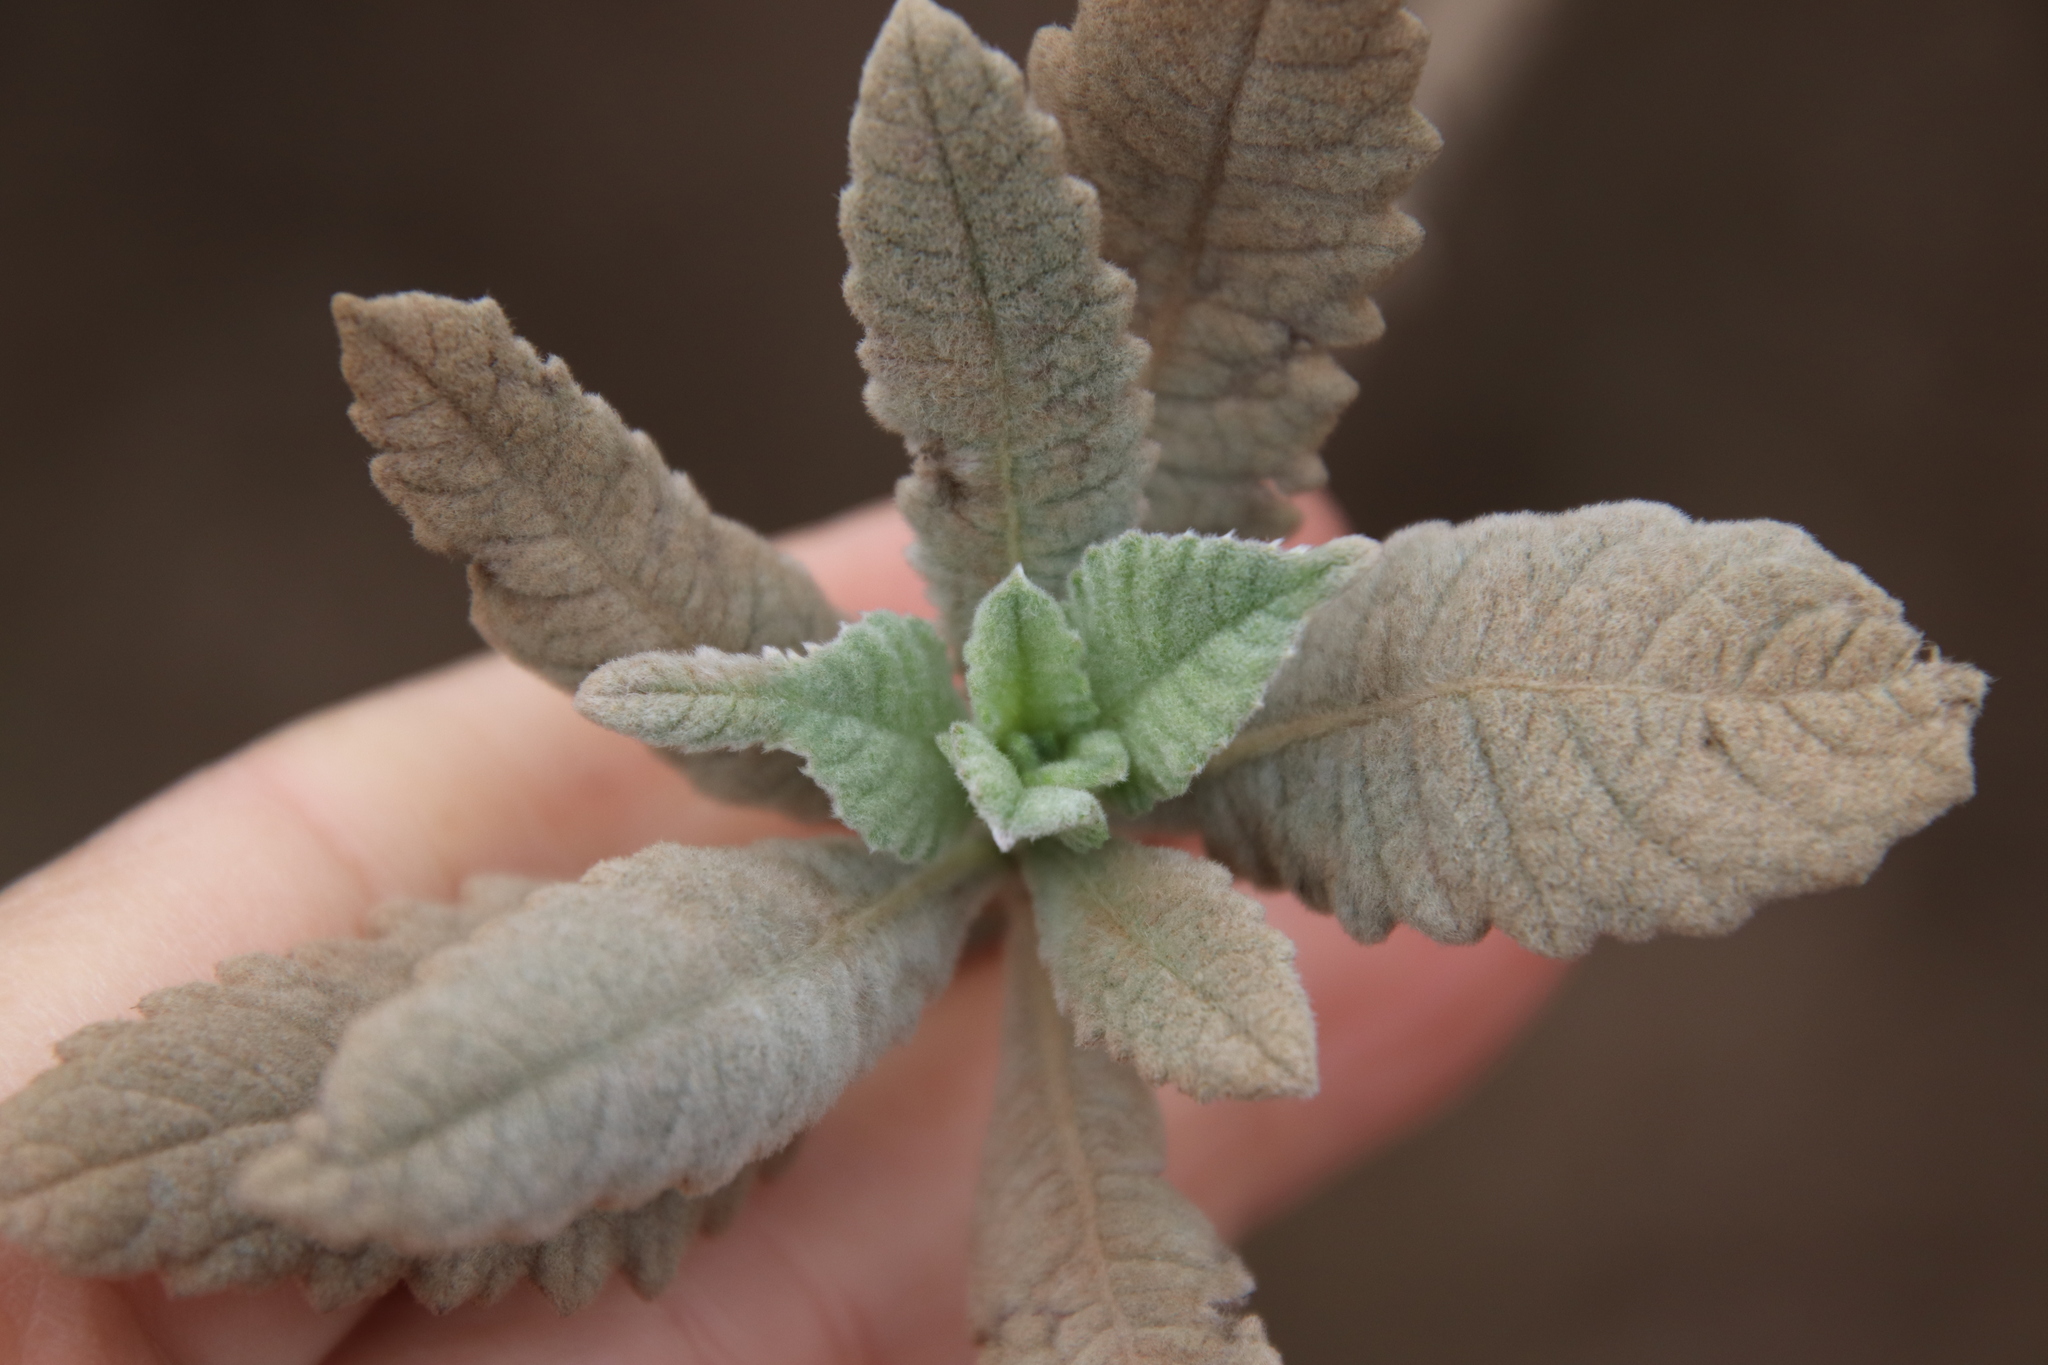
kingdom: Plantae
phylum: Tracheophyta
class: Magnoliopsida
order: Boraginales
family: Namaceae
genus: Eriodictyon
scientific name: Eriodictyon crassifolium
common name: Thick-leaf yerba-santa
